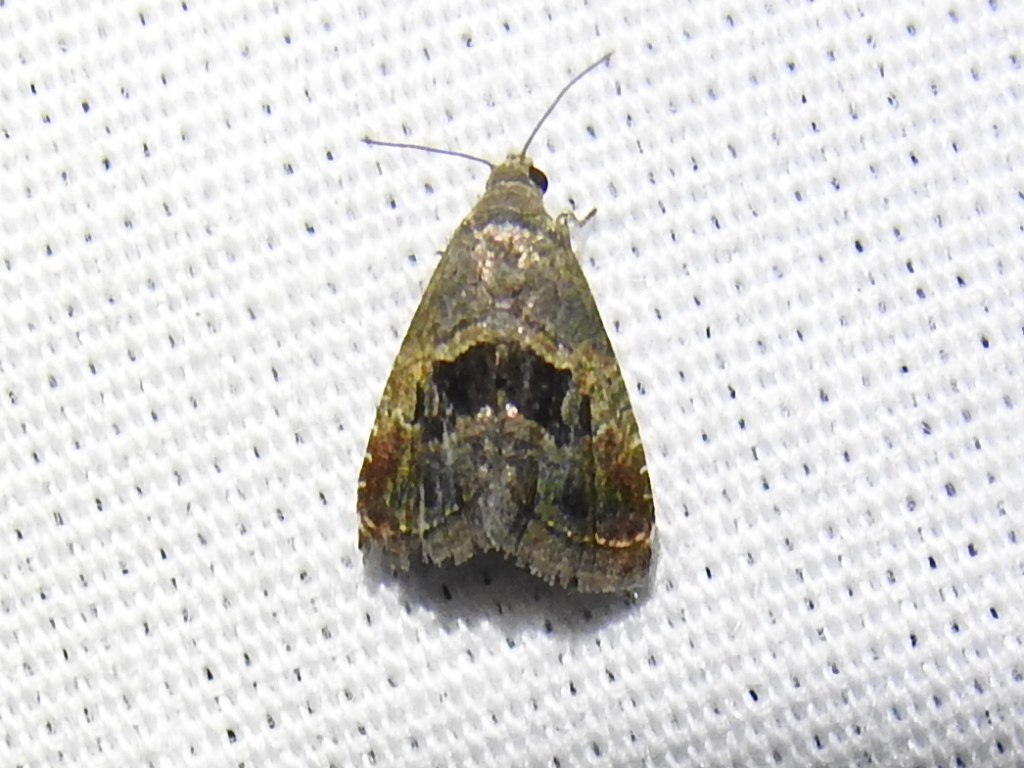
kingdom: Animalia
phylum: Arthropoda
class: Insecta
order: Lepidoptera
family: Noctuidae
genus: Tripudia
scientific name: Tripudia quadrifera
